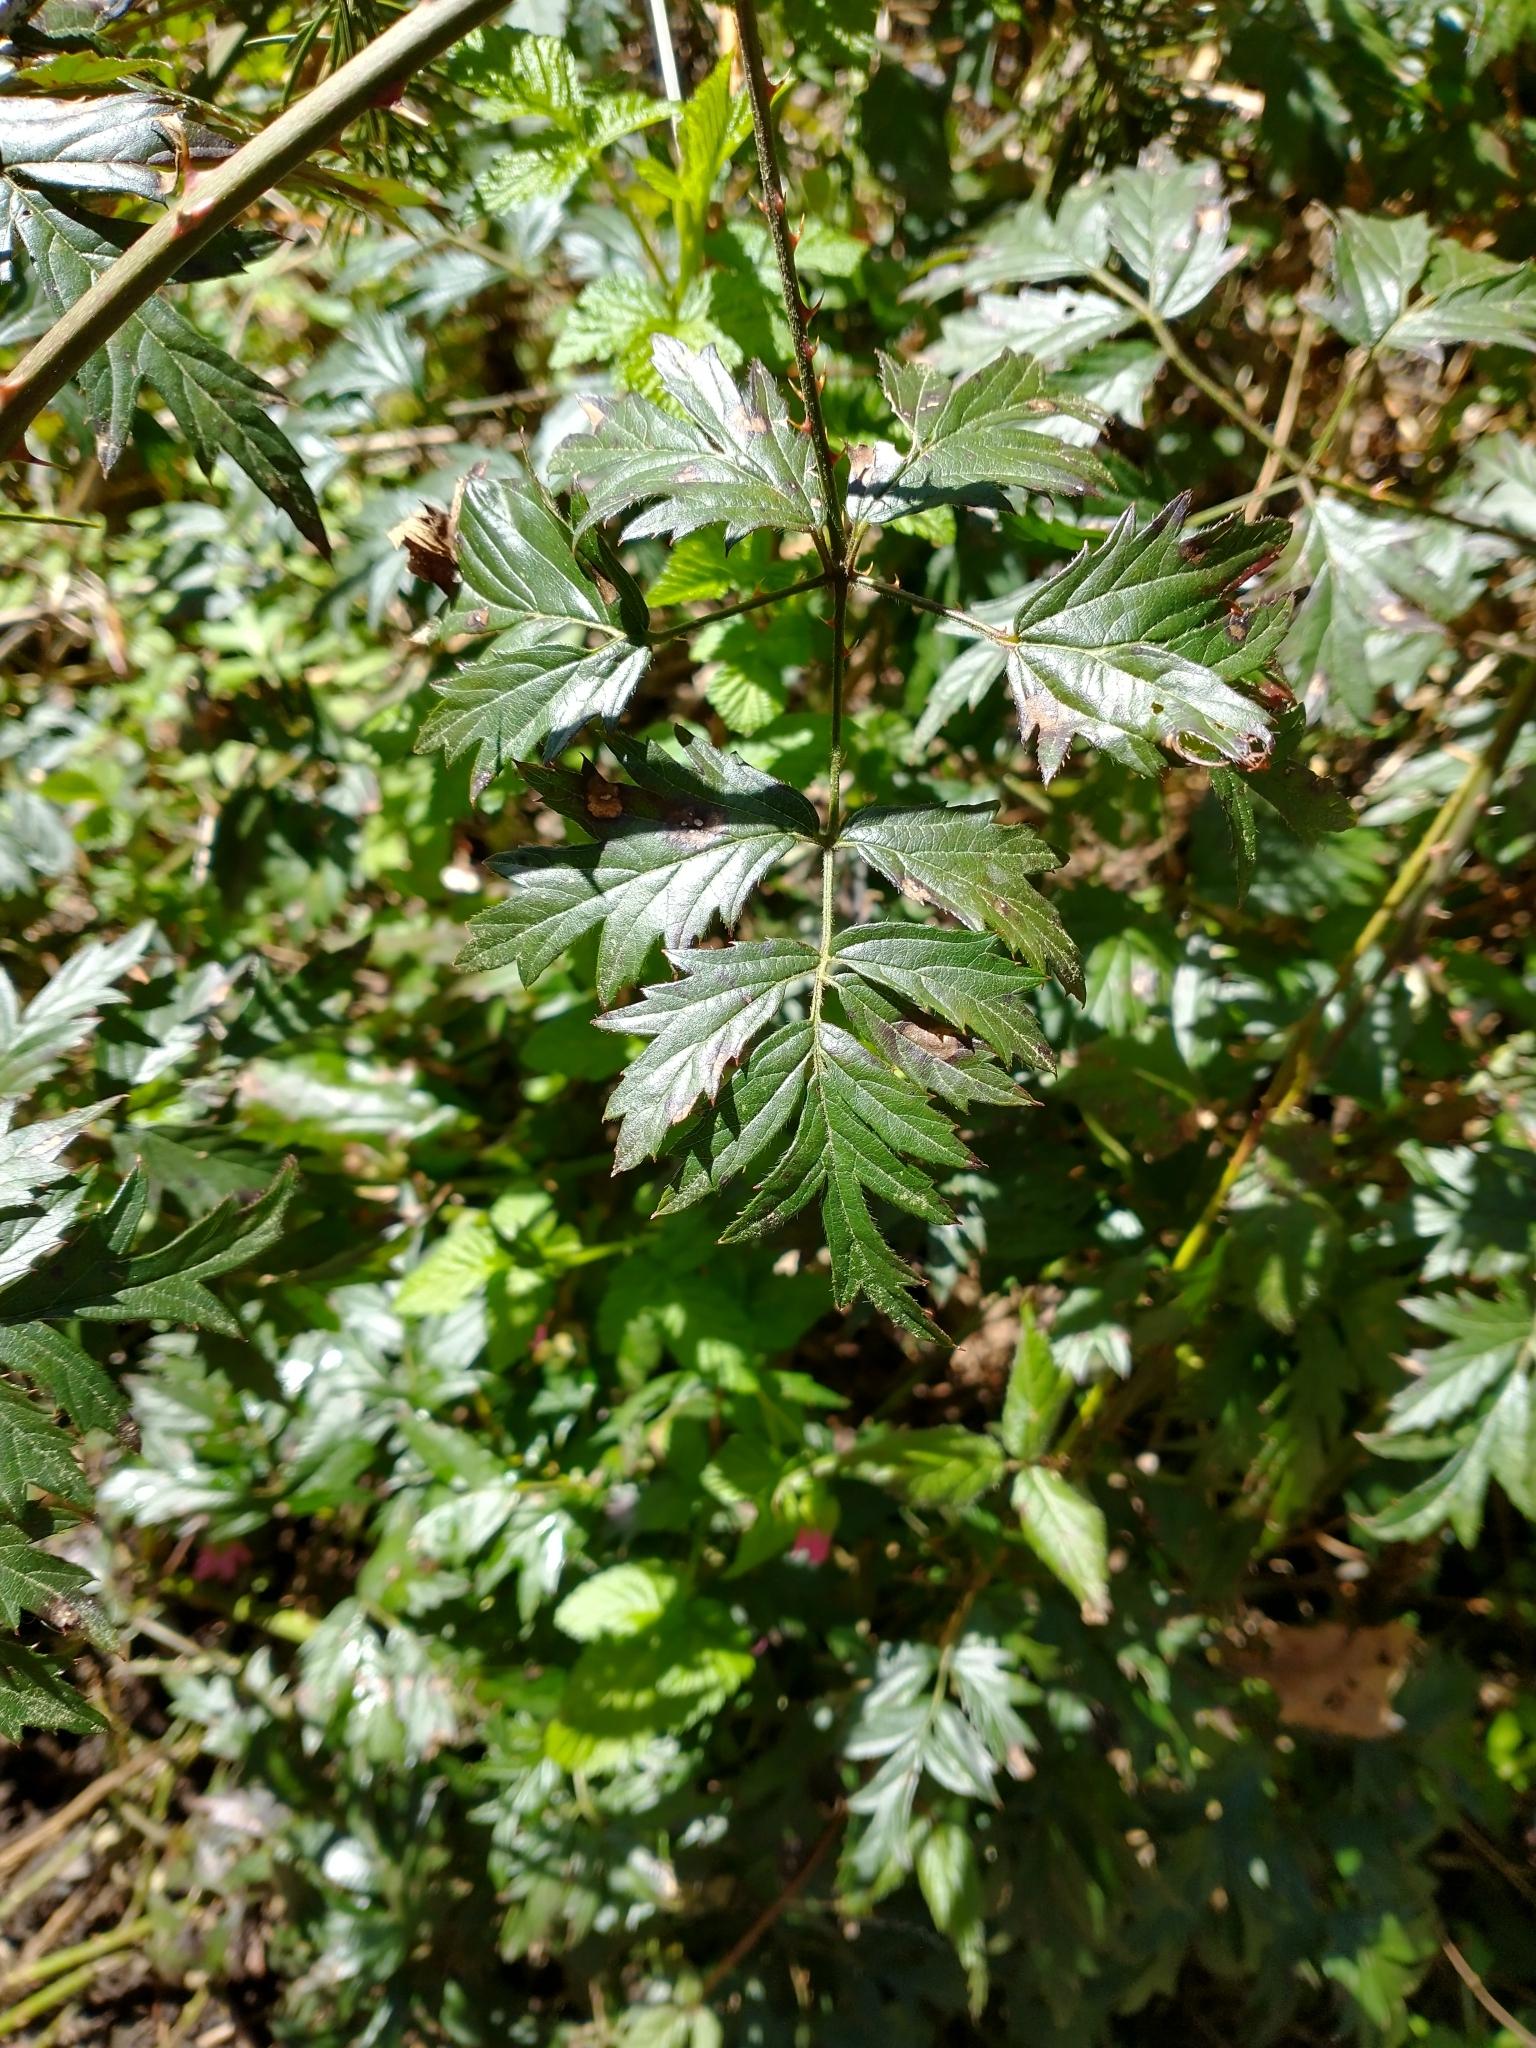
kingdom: Plantae
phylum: Tracheophyta
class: Magnoliopsida
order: Rosales
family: Rosaceae
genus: Rubus
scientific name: Rubus laciniatus
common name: Evergreen blackberry
